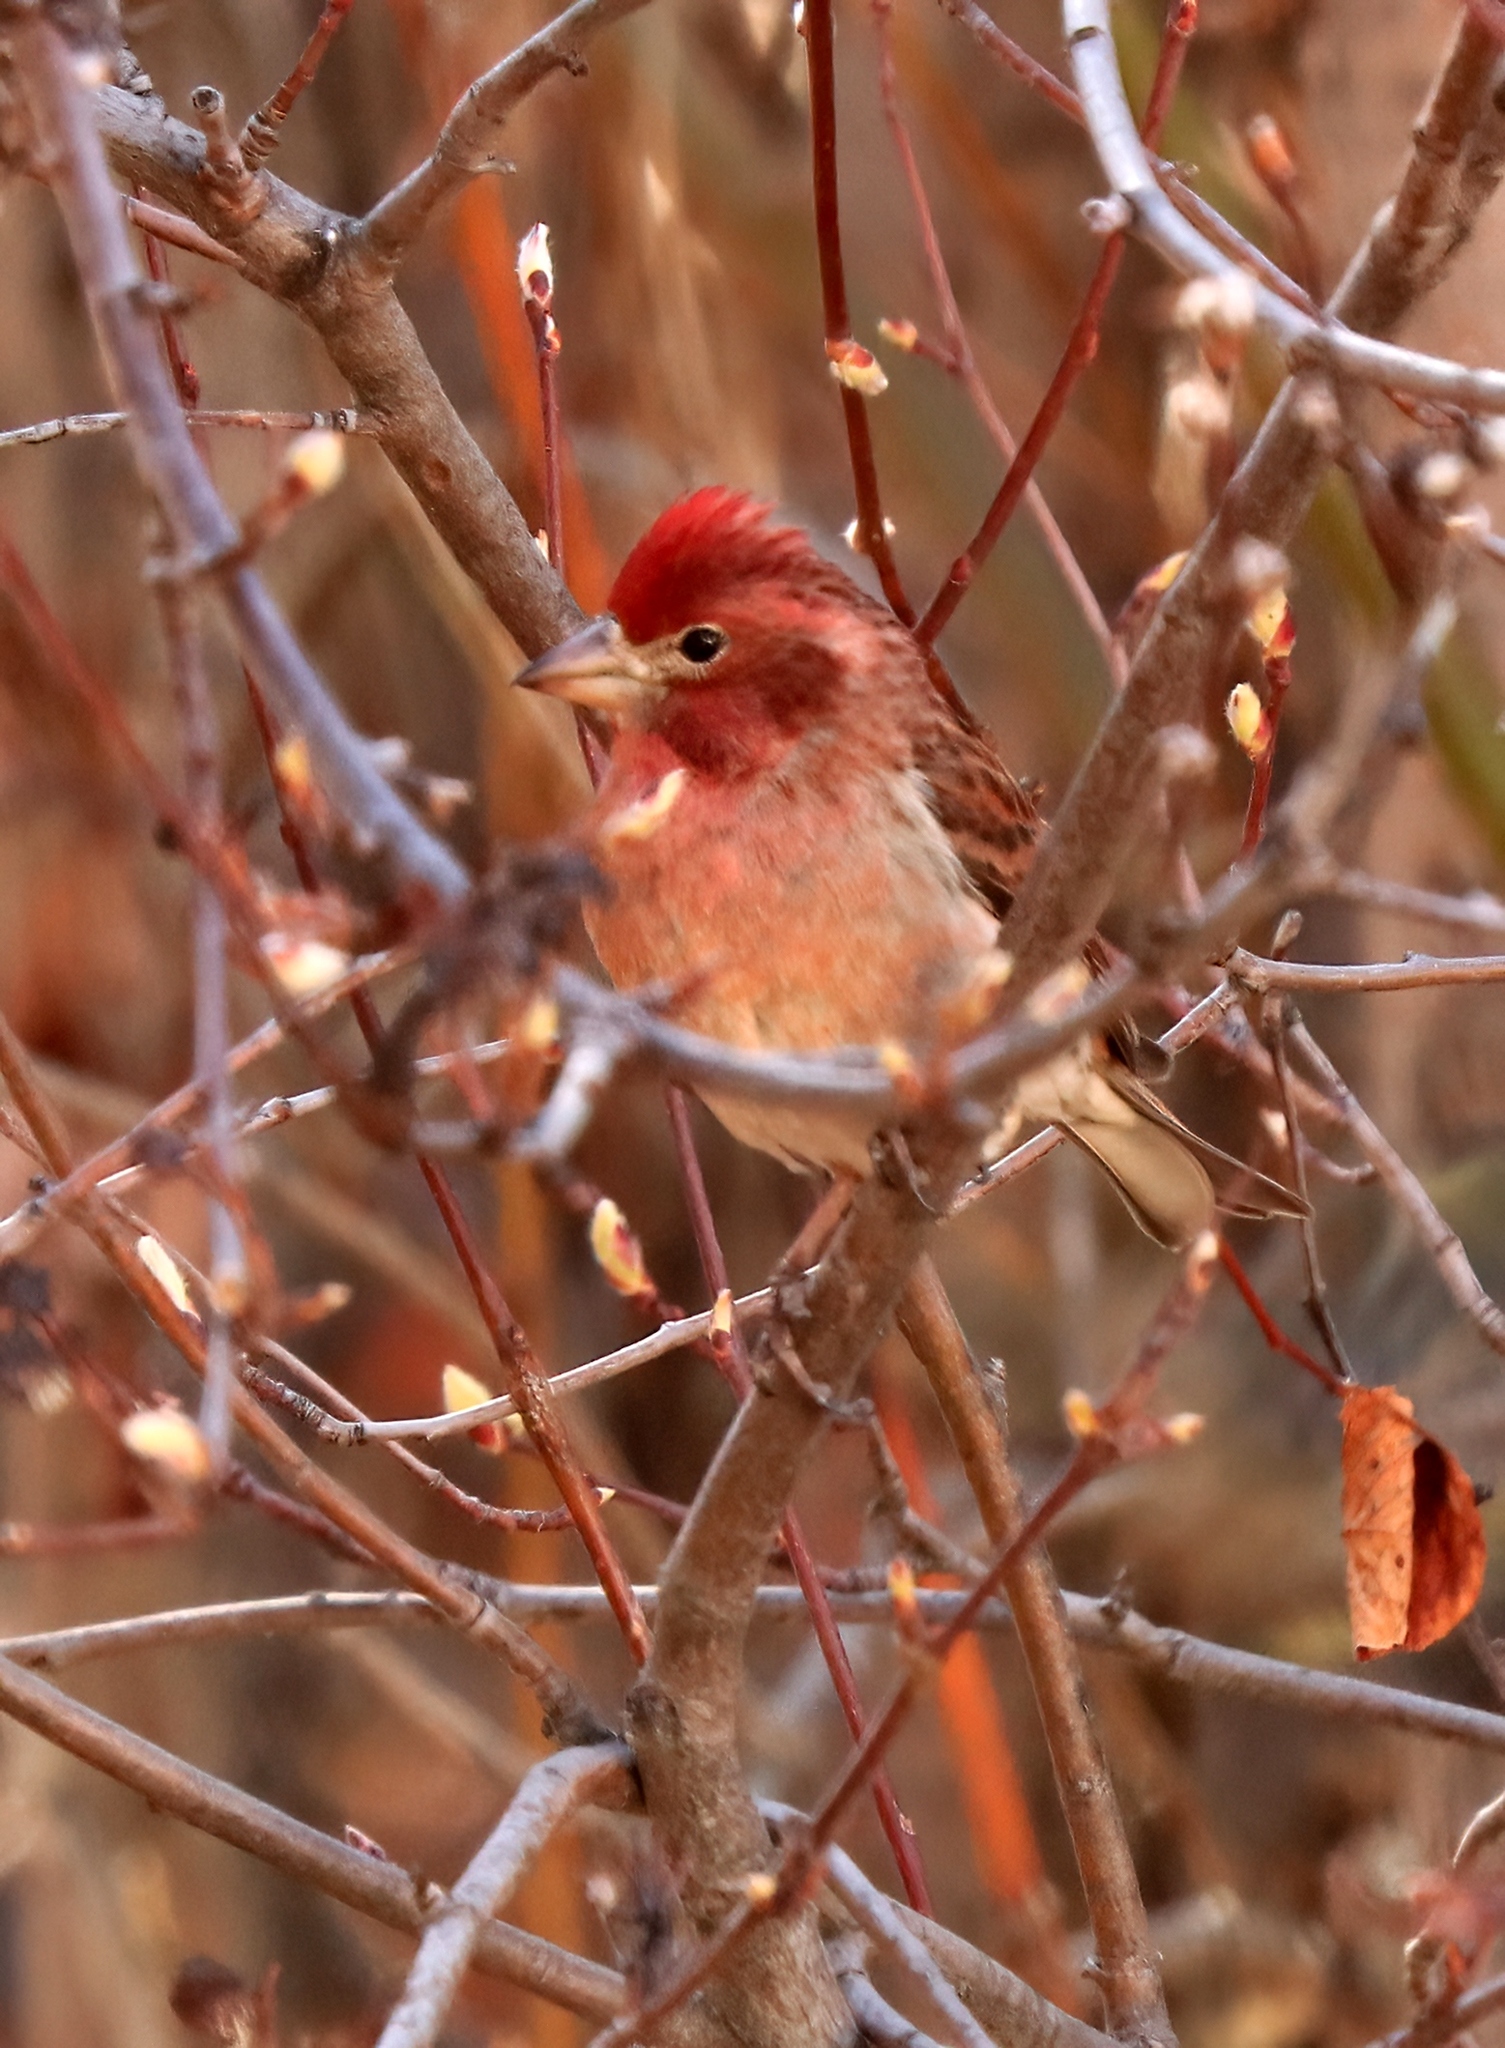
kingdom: Animalia
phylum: Chordata
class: Aves
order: Passeriformes
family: Fringillidae
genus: Haemorhous
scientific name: Haemorhous cassinii
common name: Cassin's finch
